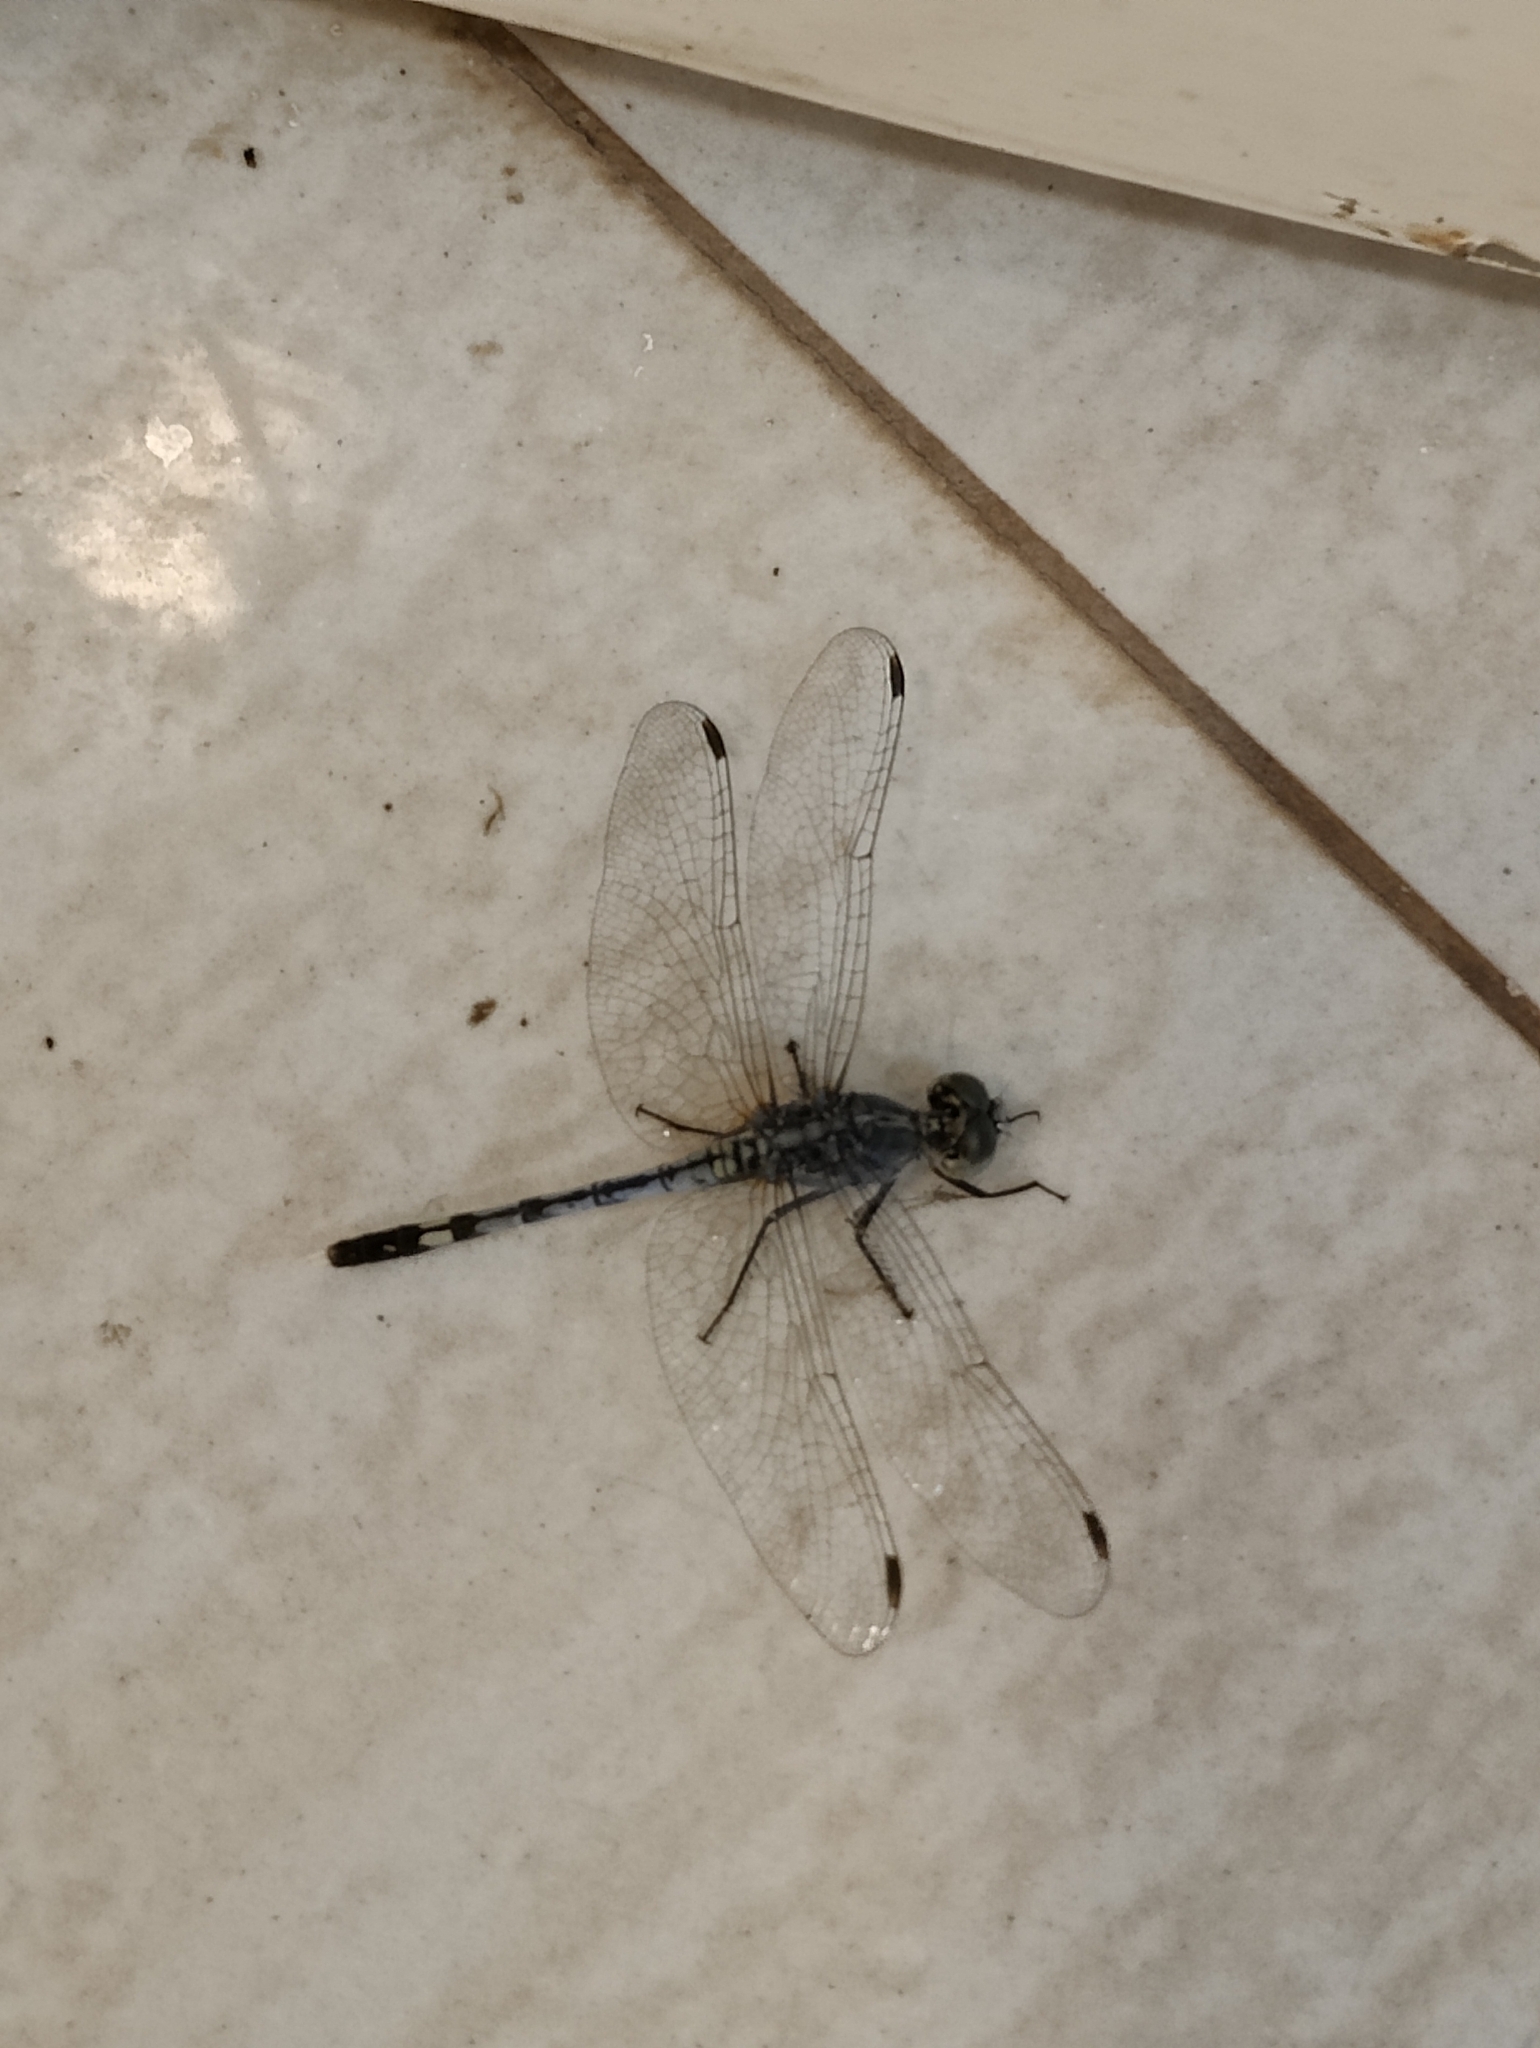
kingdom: Animalia
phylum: Arthropoda
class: Insecta
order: Odonata
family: Libellulidae
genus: Diplacodes
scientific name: Diplacodes trivialis
